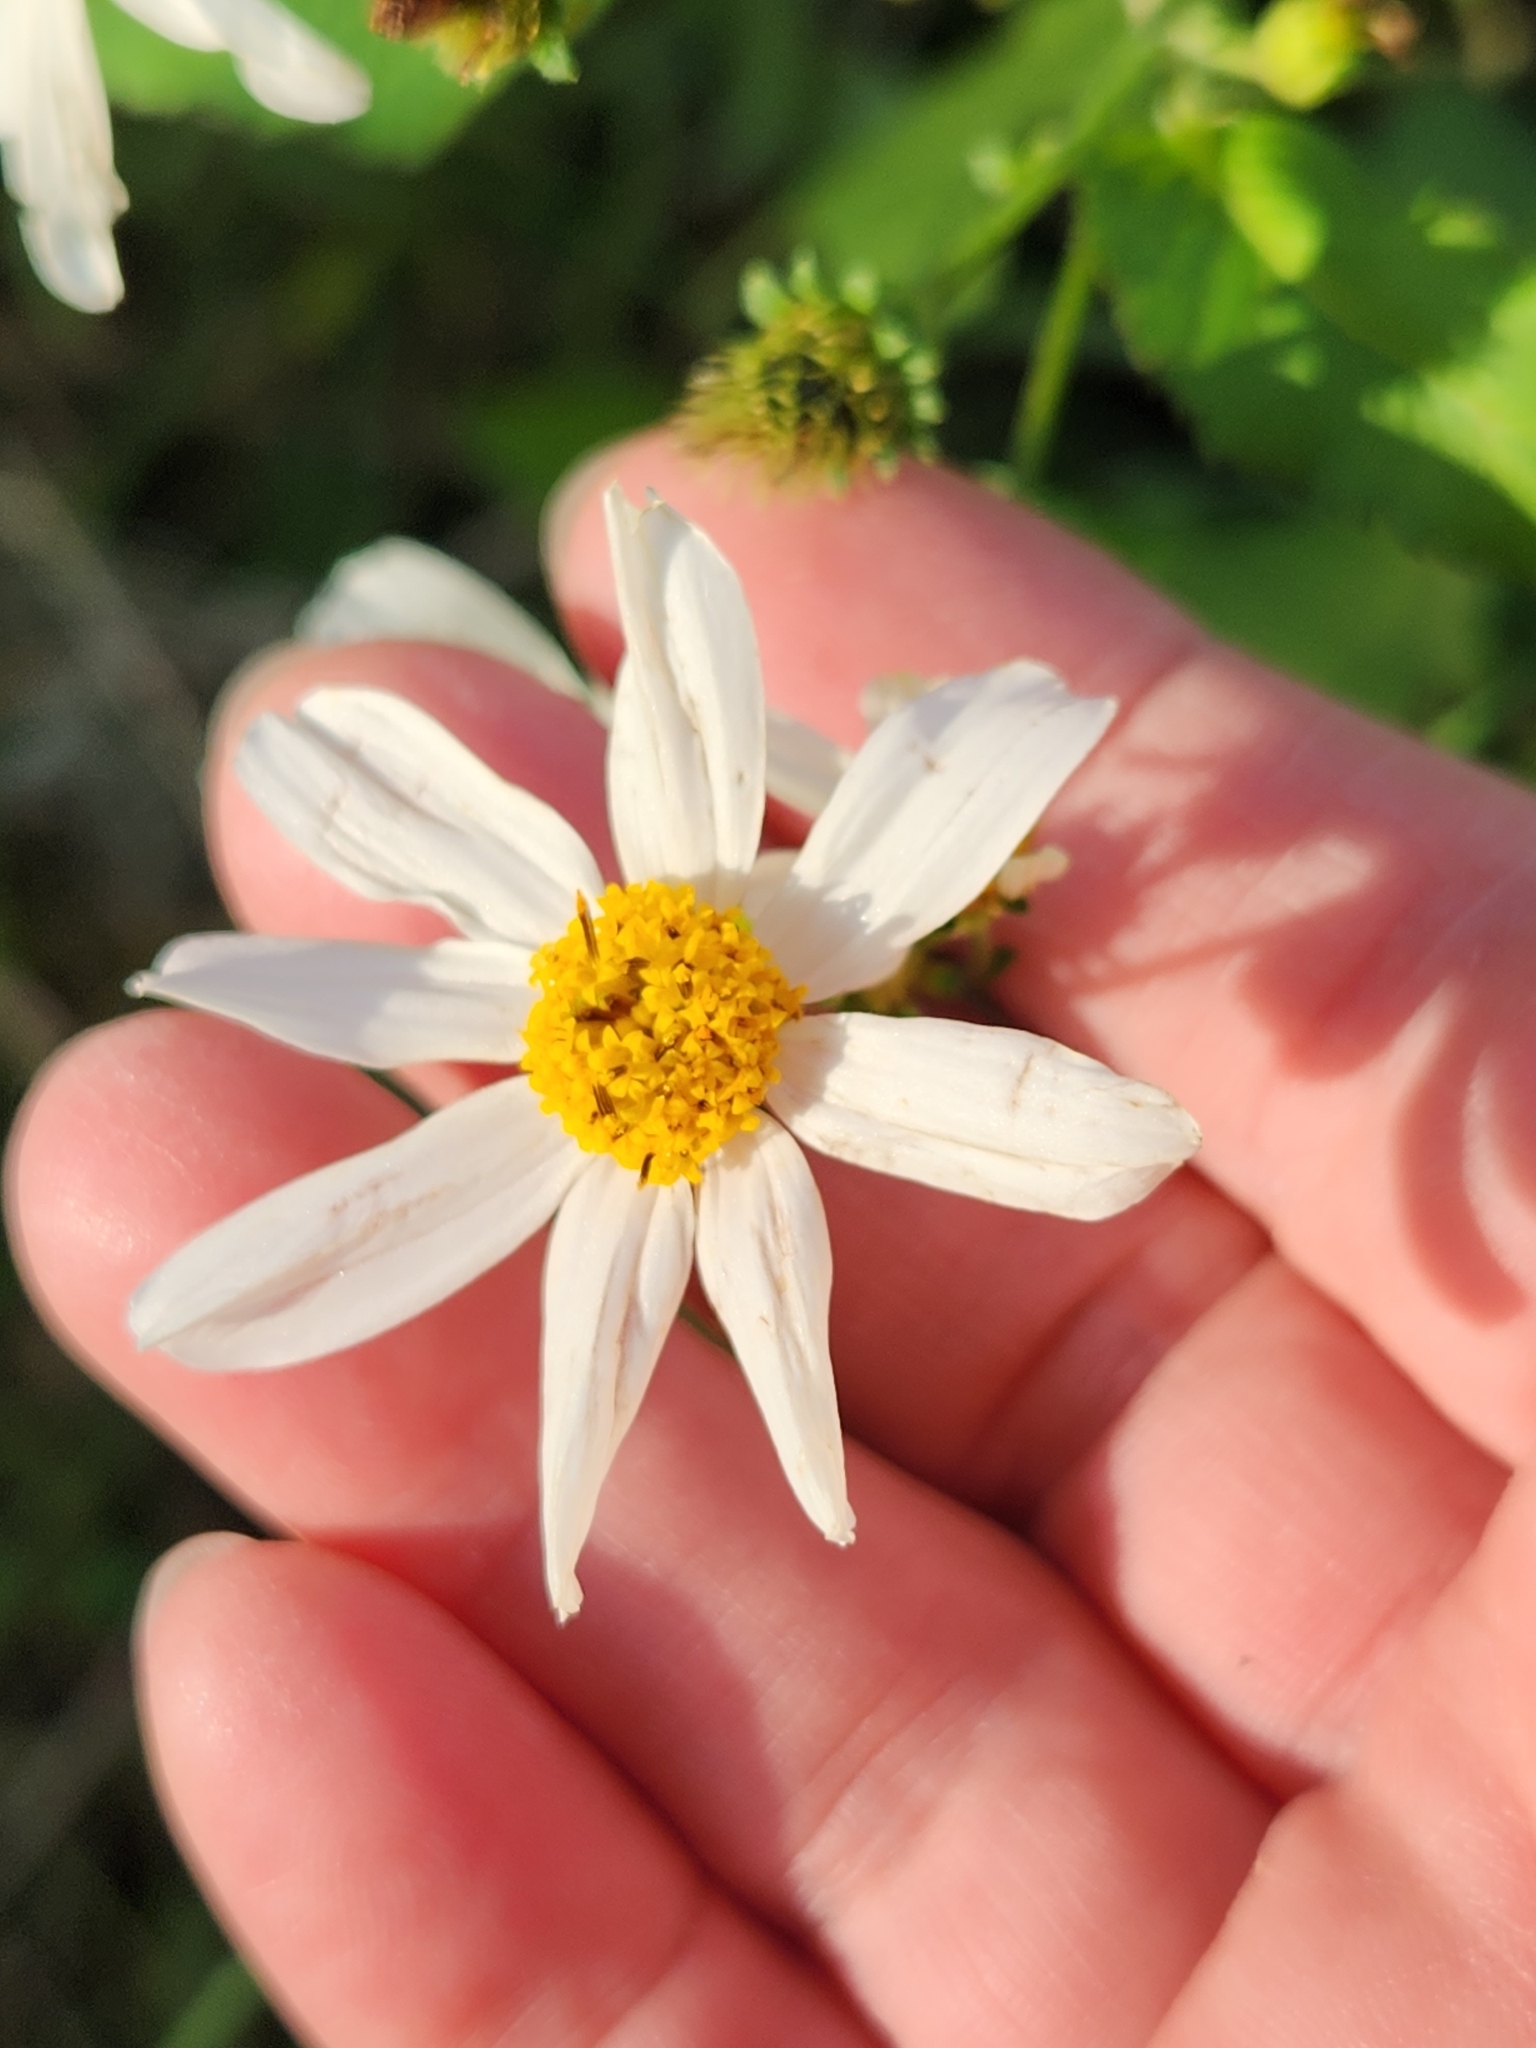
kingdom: Plantae
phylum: Tracheophyta
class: Magnoliopsida
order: Asterales
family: Asteraceae
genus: Bidens
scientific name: Bidens alba
